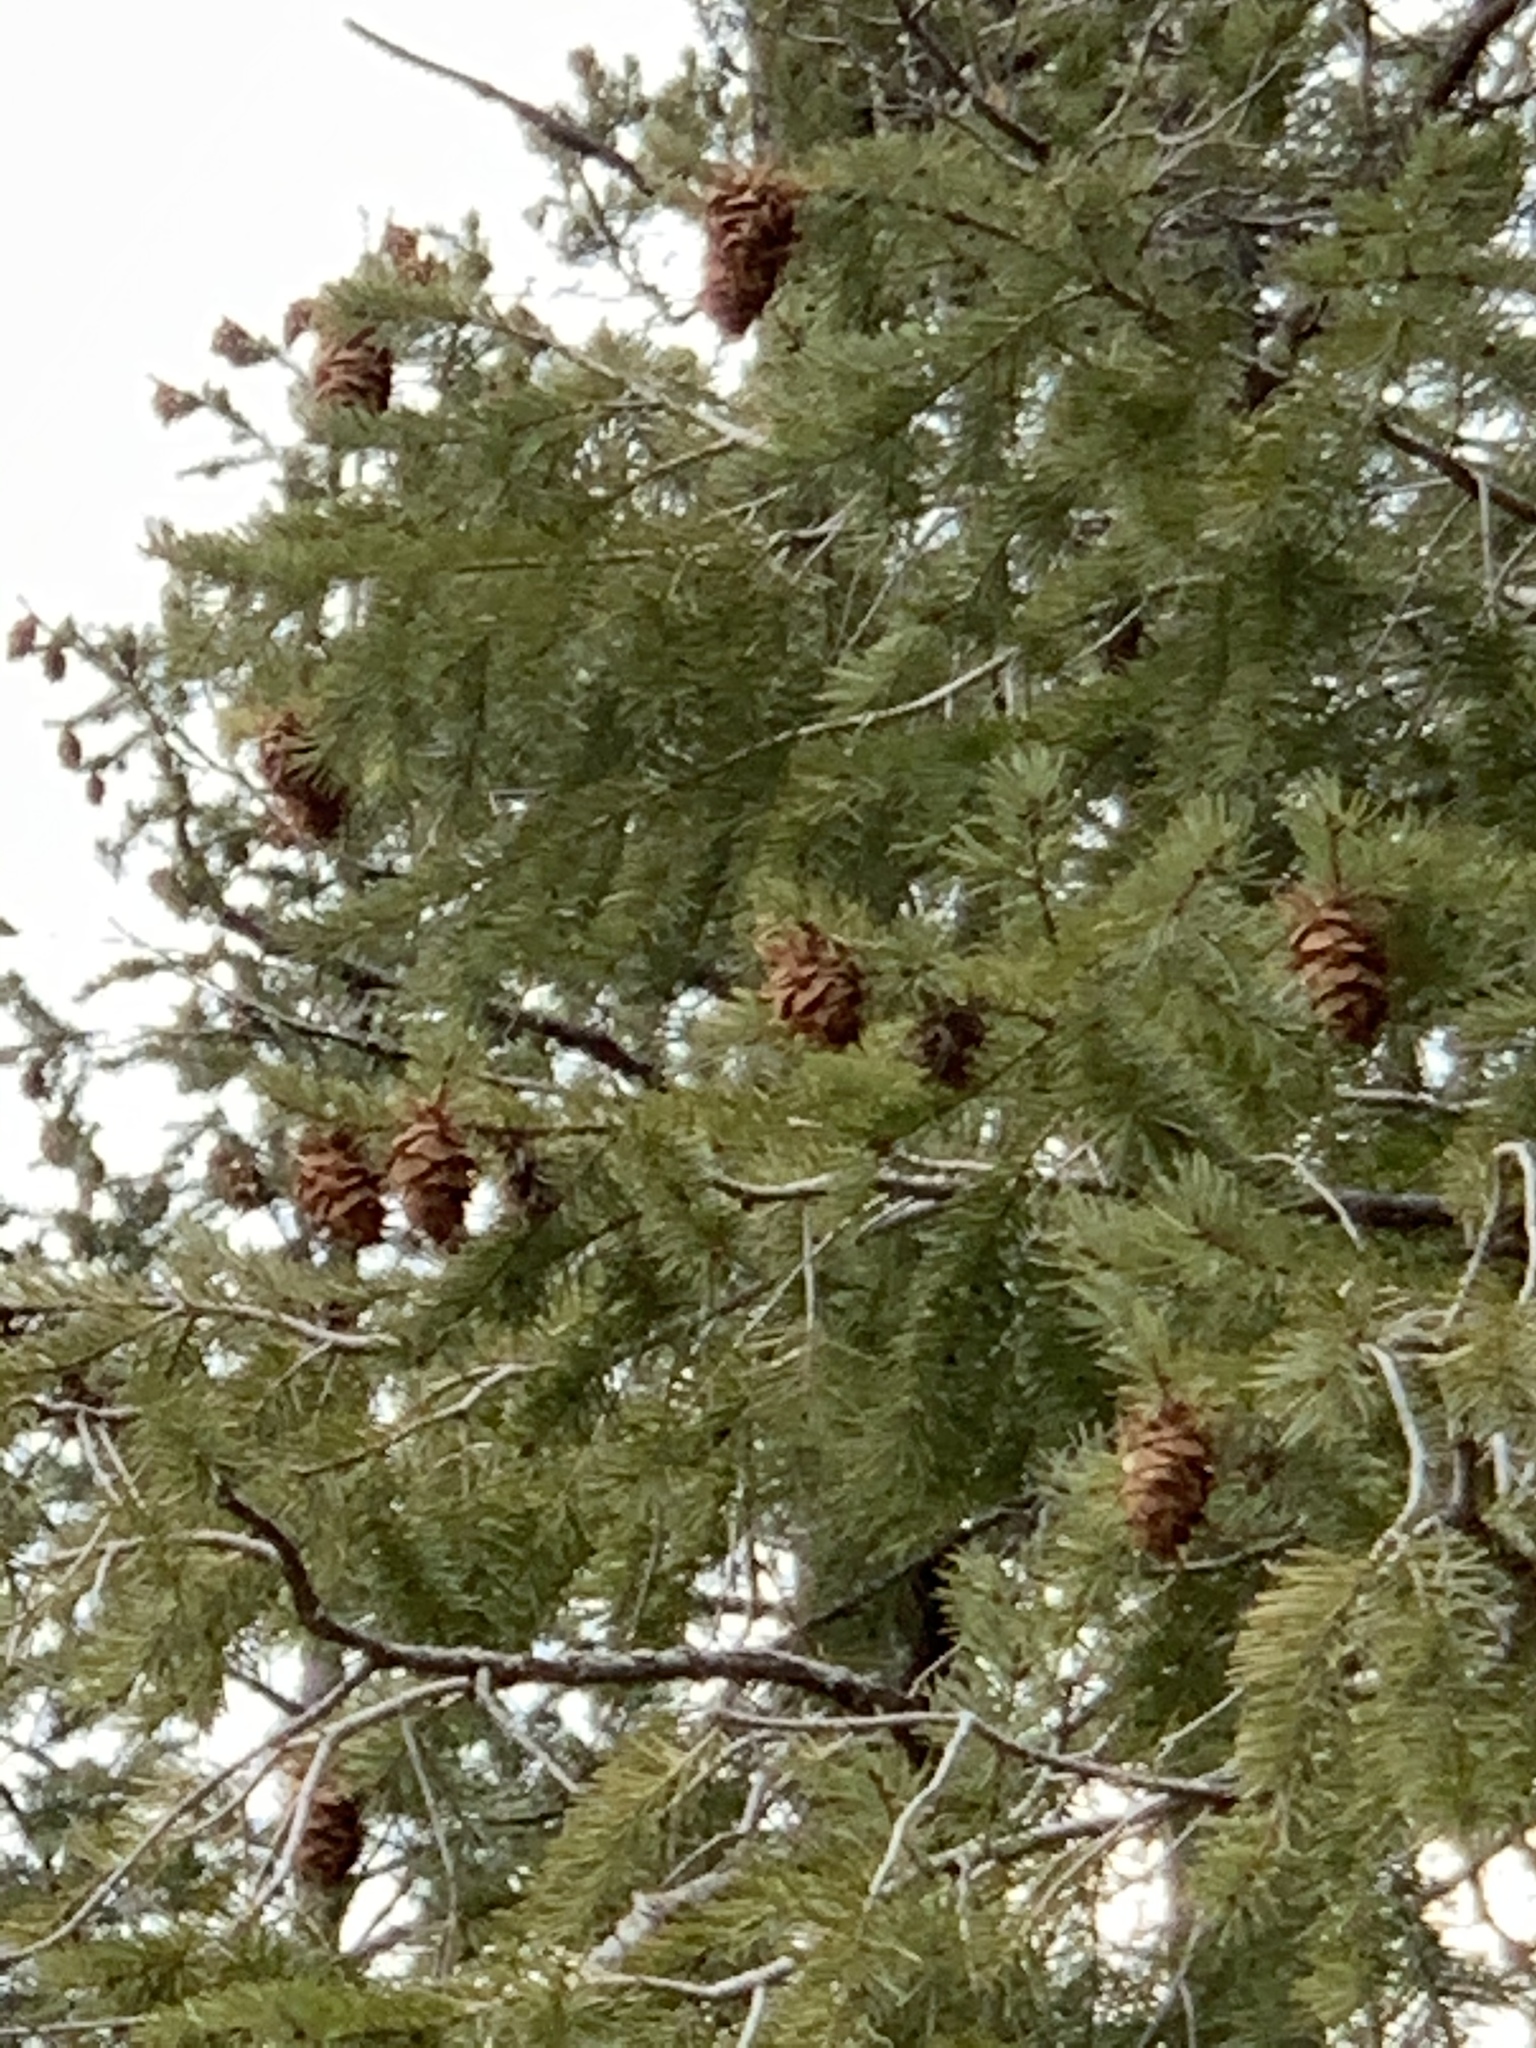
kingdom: Plantae
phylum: Tracheophyta
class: Pinopsida
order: Pinales
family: Pinaceae
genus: Pseudotsuga
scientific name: Pseudotsuga menziesii
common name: Douglas fir
